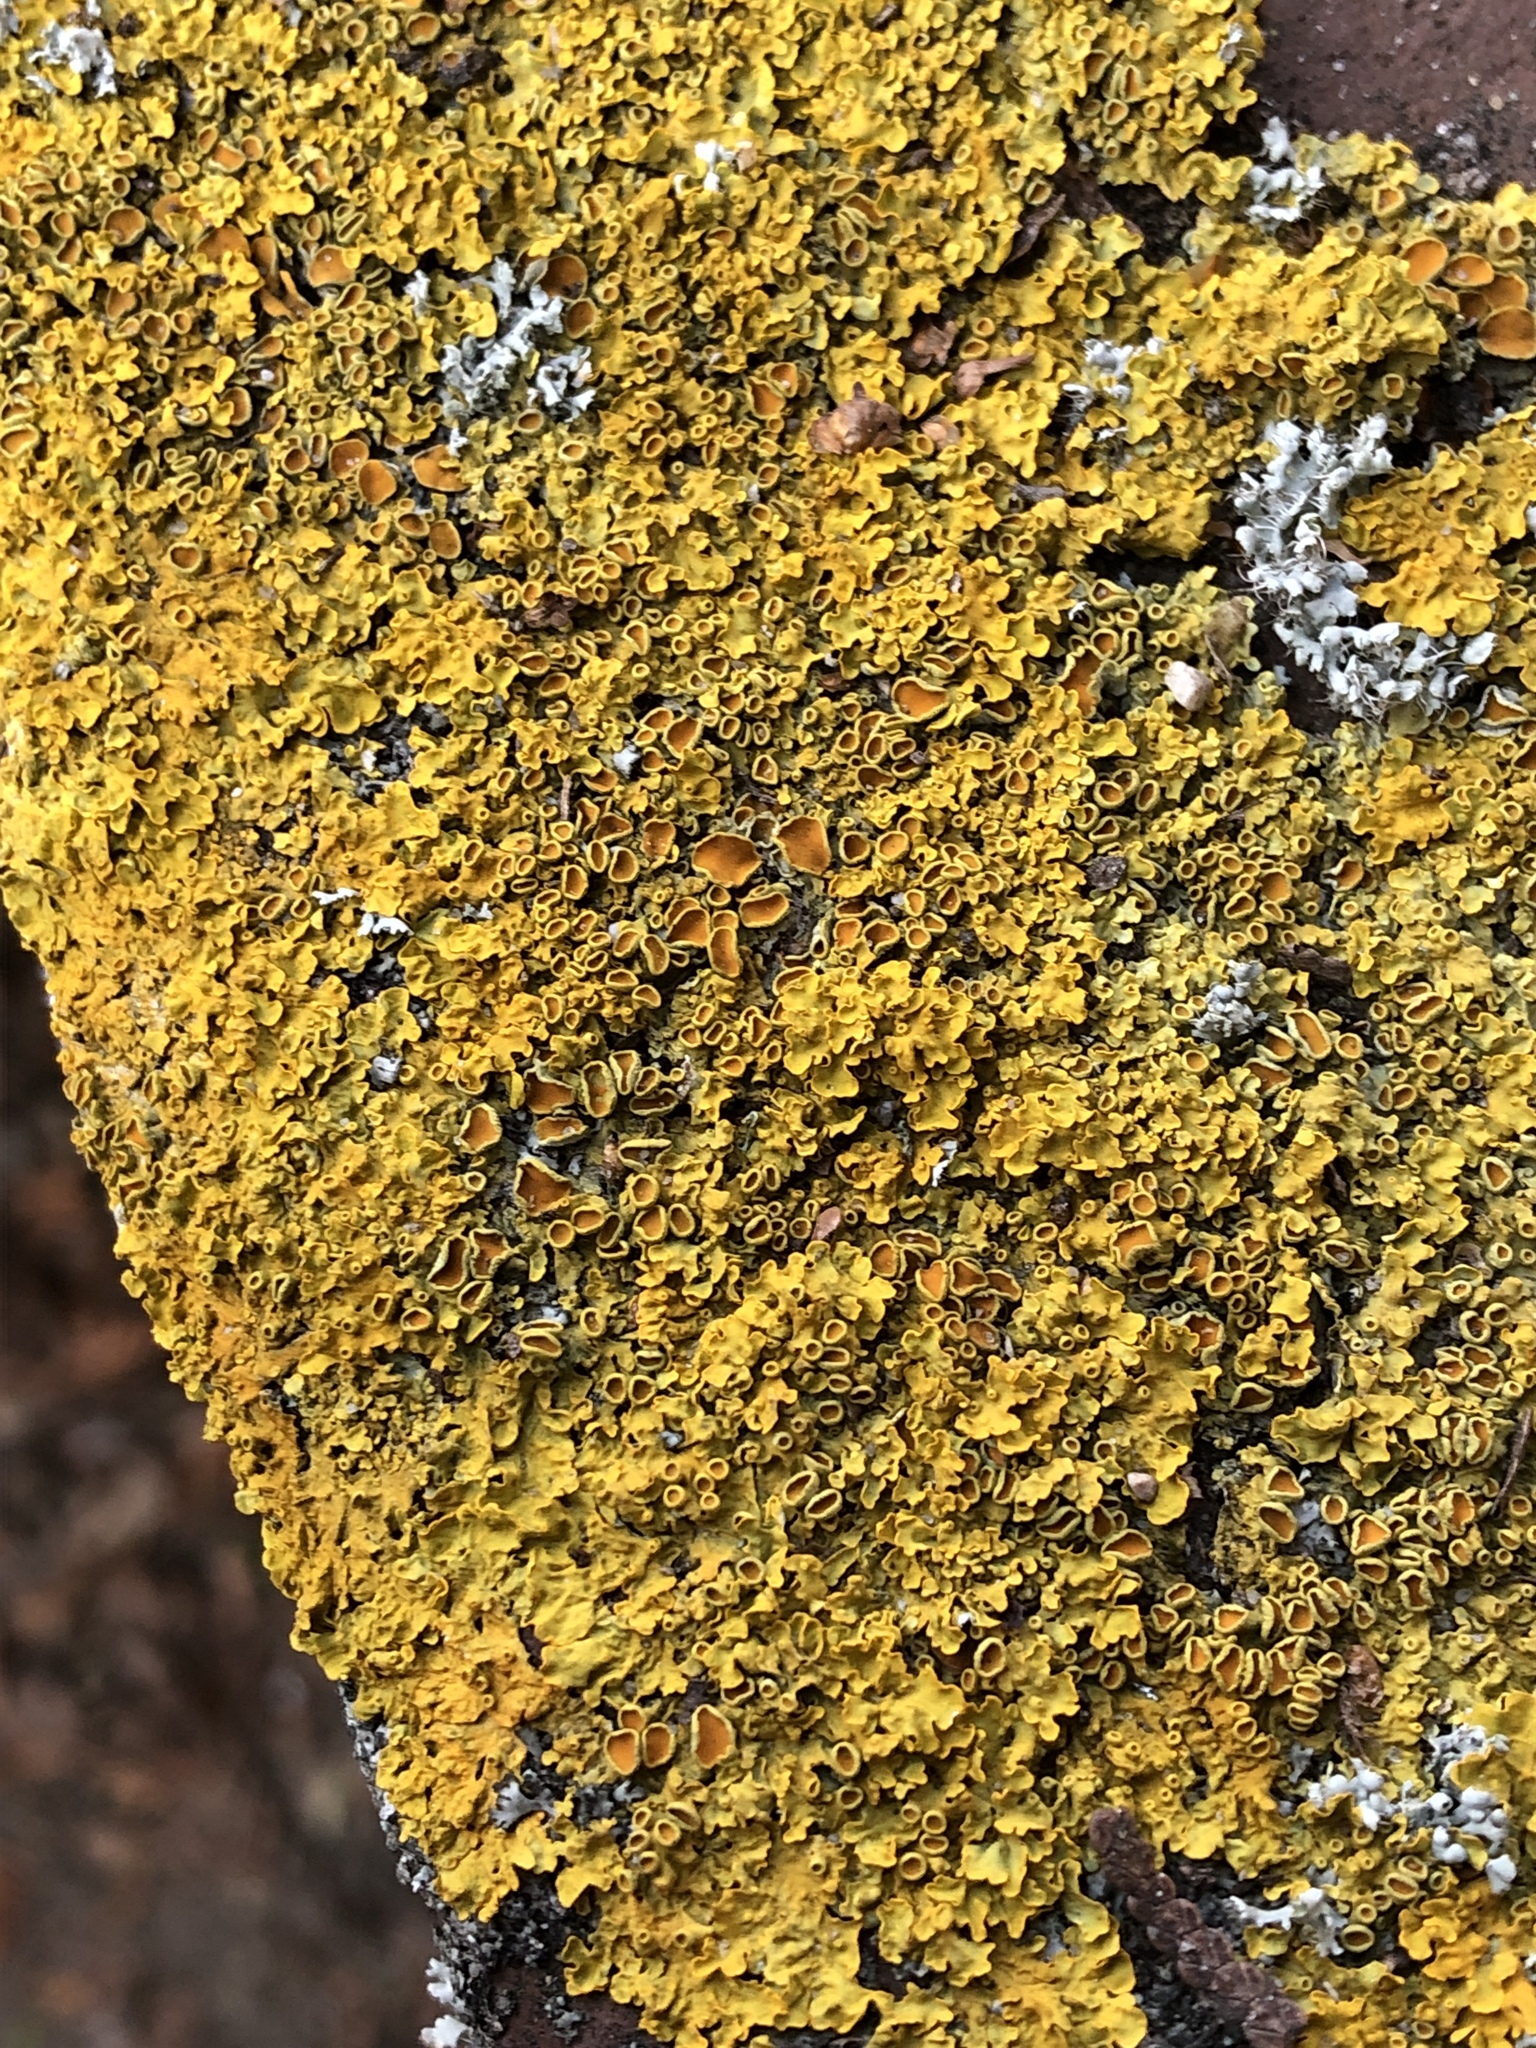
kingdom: Fungi
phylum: Ascomycota
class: Lecanoromycetes
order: Teloschistales
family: Teloschistaceae
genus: Xanthoria
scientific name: Xanthoria parietina
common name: Common orange lichen
